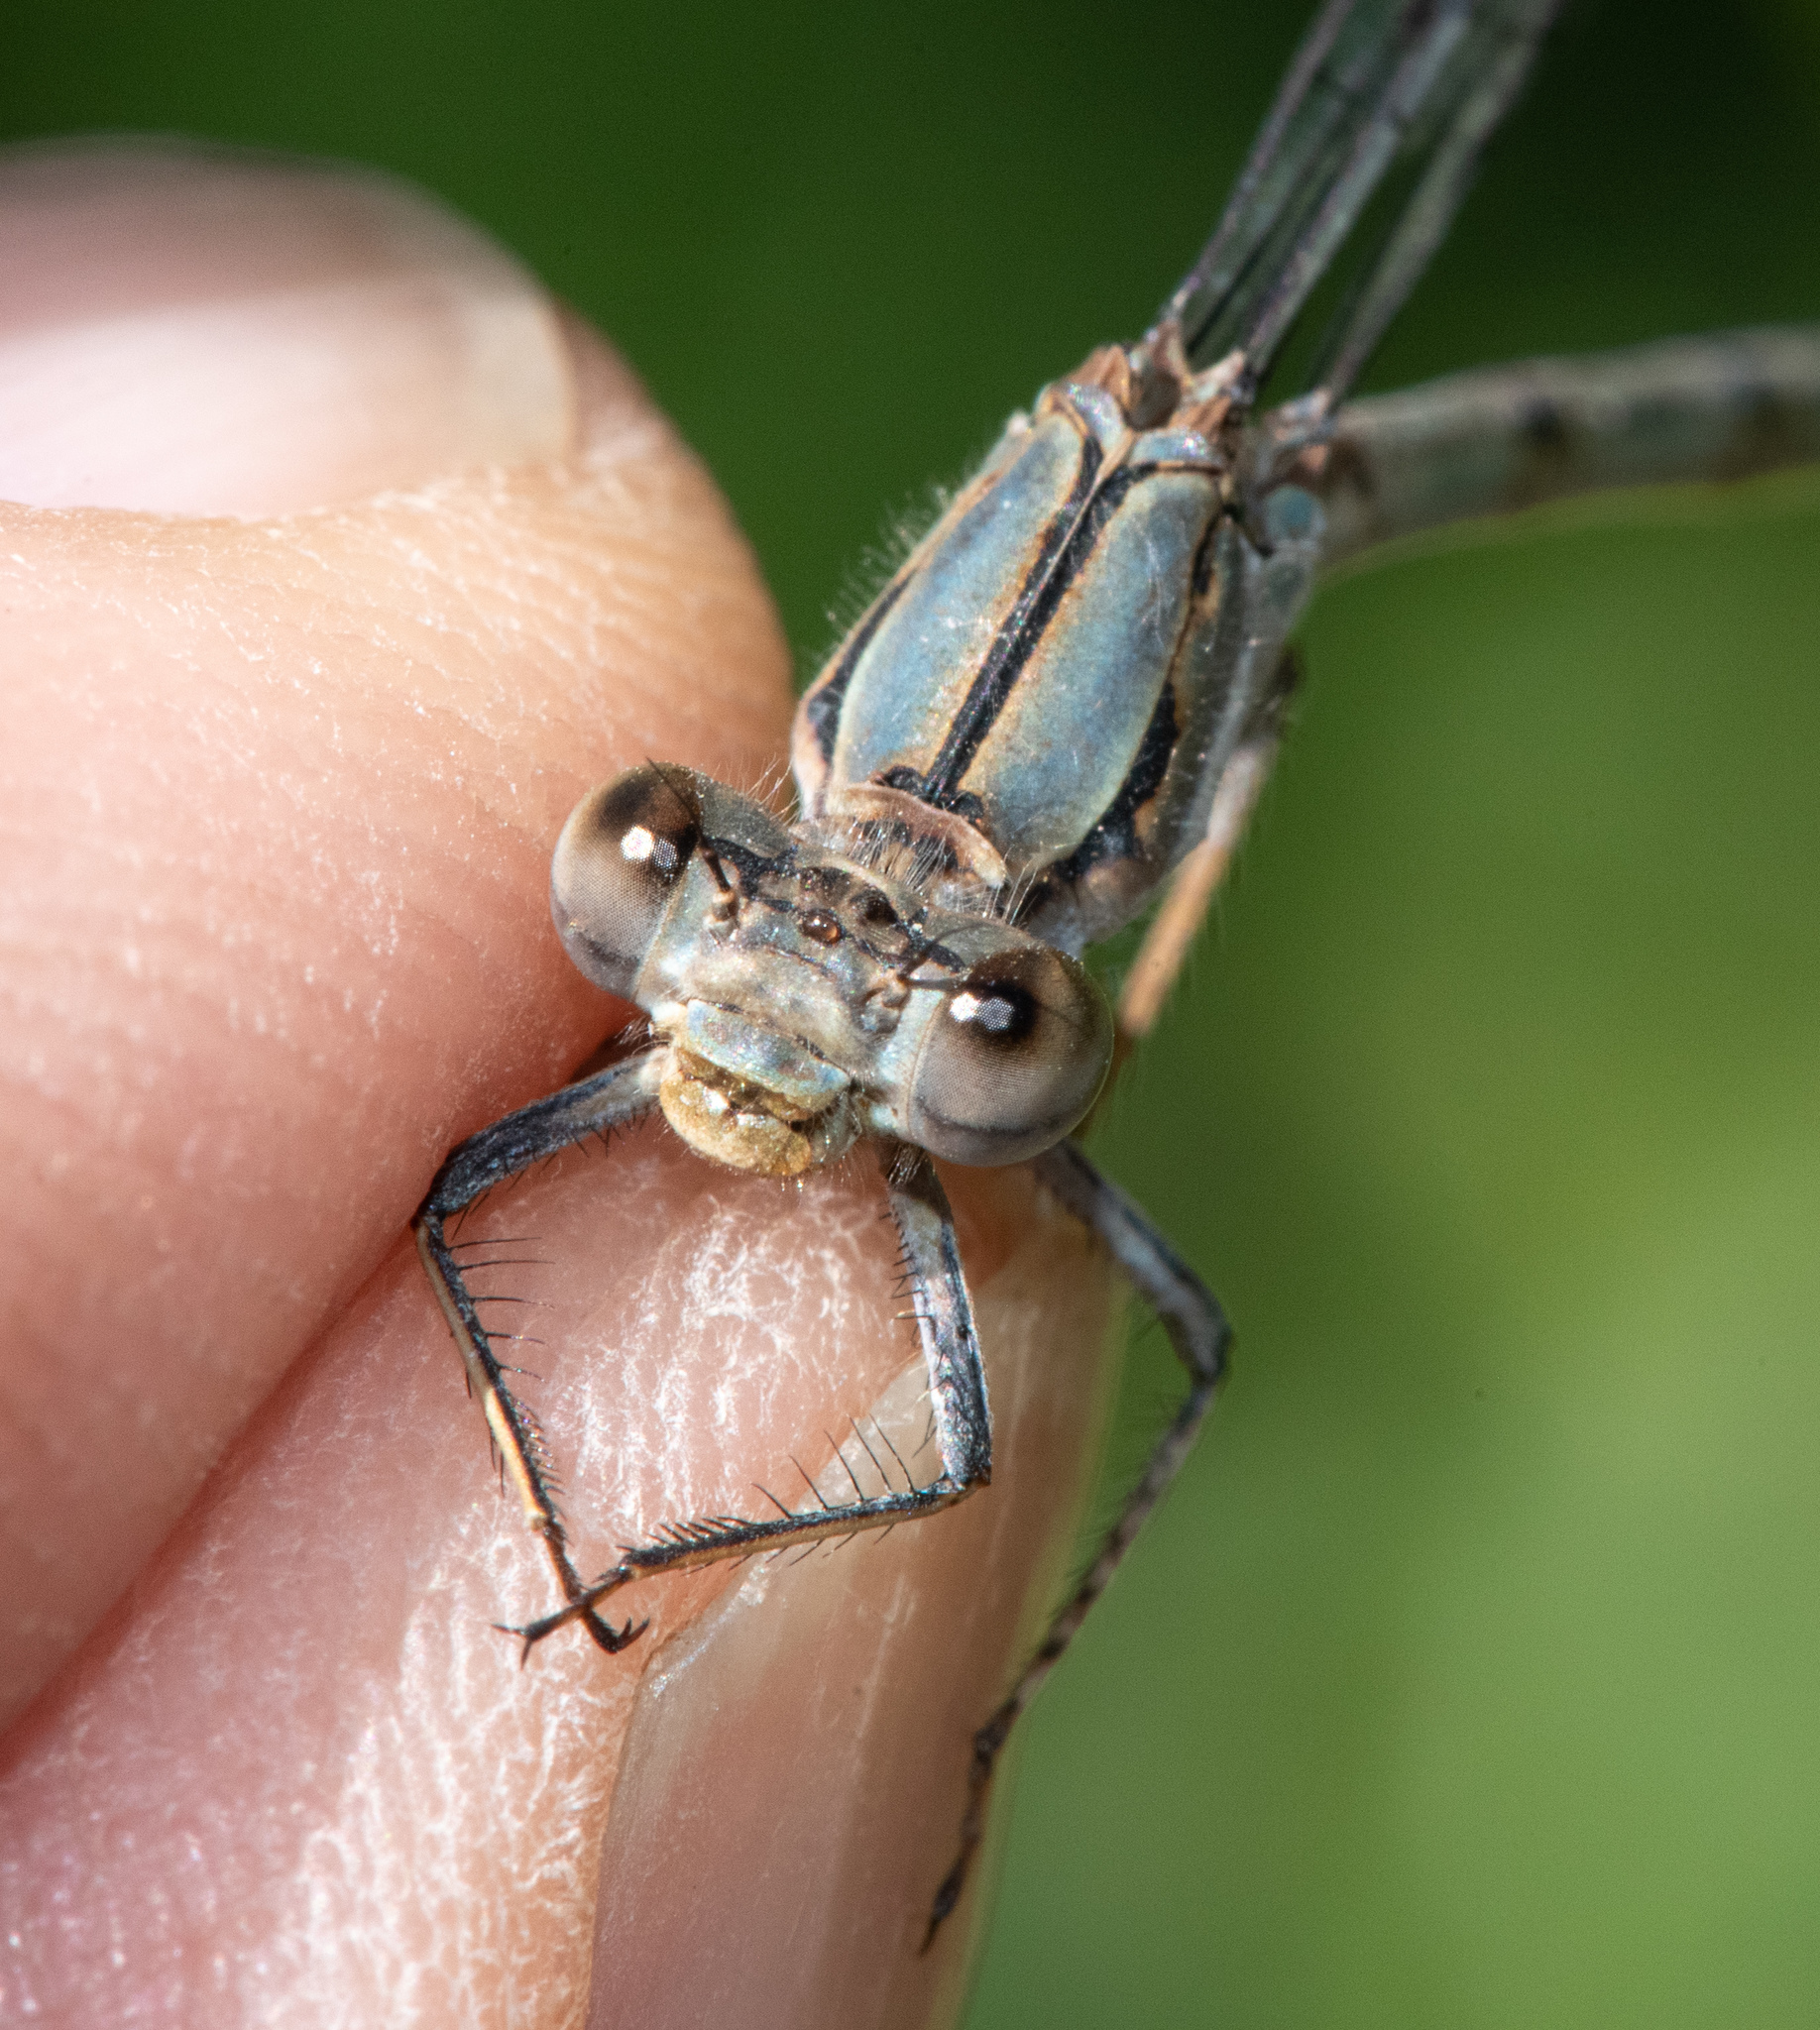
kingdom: Animalia
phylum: Arthropoda
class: Insecta
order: Odonata
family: Coenagrionidae
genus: Argia
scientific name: Argia emma
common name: Emma's dancer
